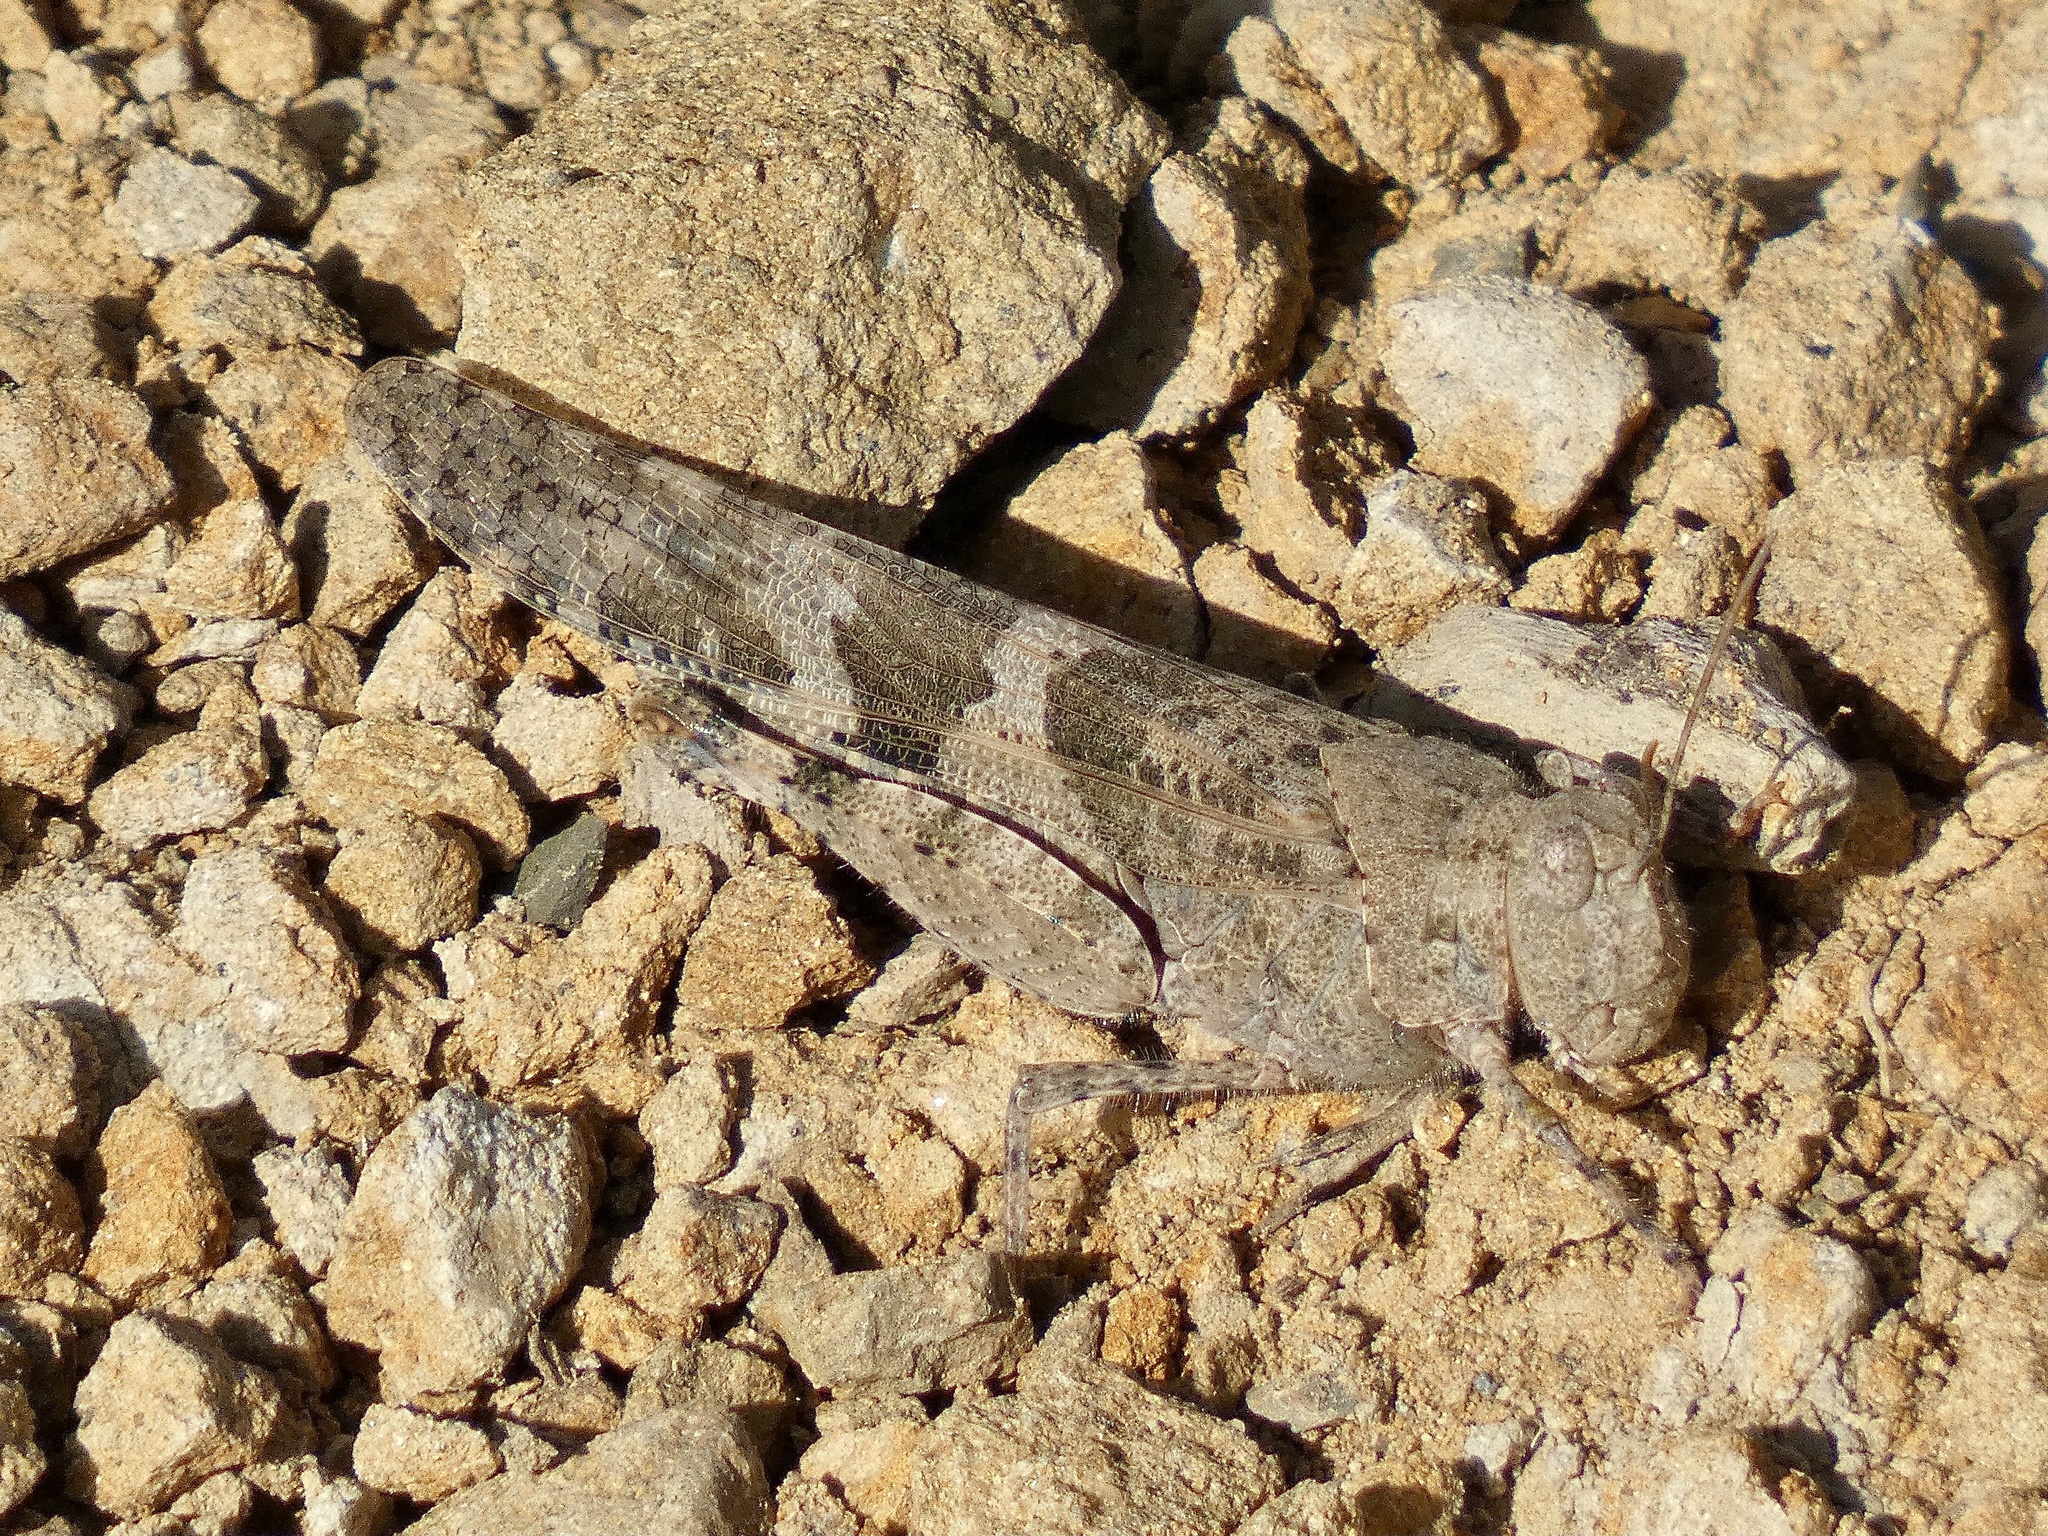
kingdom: Animalia
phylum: Arthropoda
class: Insecta
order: Orthoptera
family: Acrididae
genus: Trimerotropis
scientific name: Trimerotropis pallidipennis
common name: Pallid-winged grasshopper
